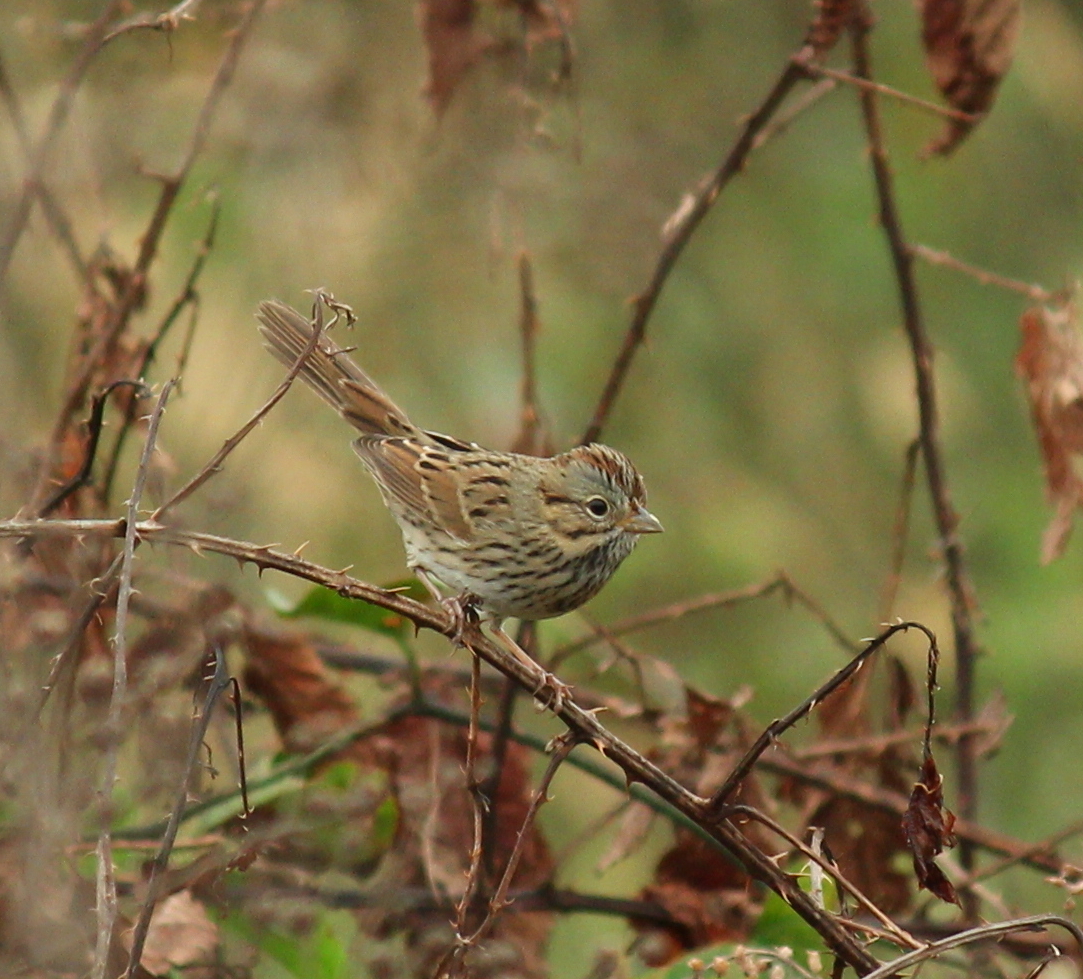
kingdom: Animalia
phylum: Chordata
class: Aves
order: Passeriformes
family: Passerellidae
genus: Melospiza
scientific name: Melospiza lincolnii
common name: Lincoln's sparrow
